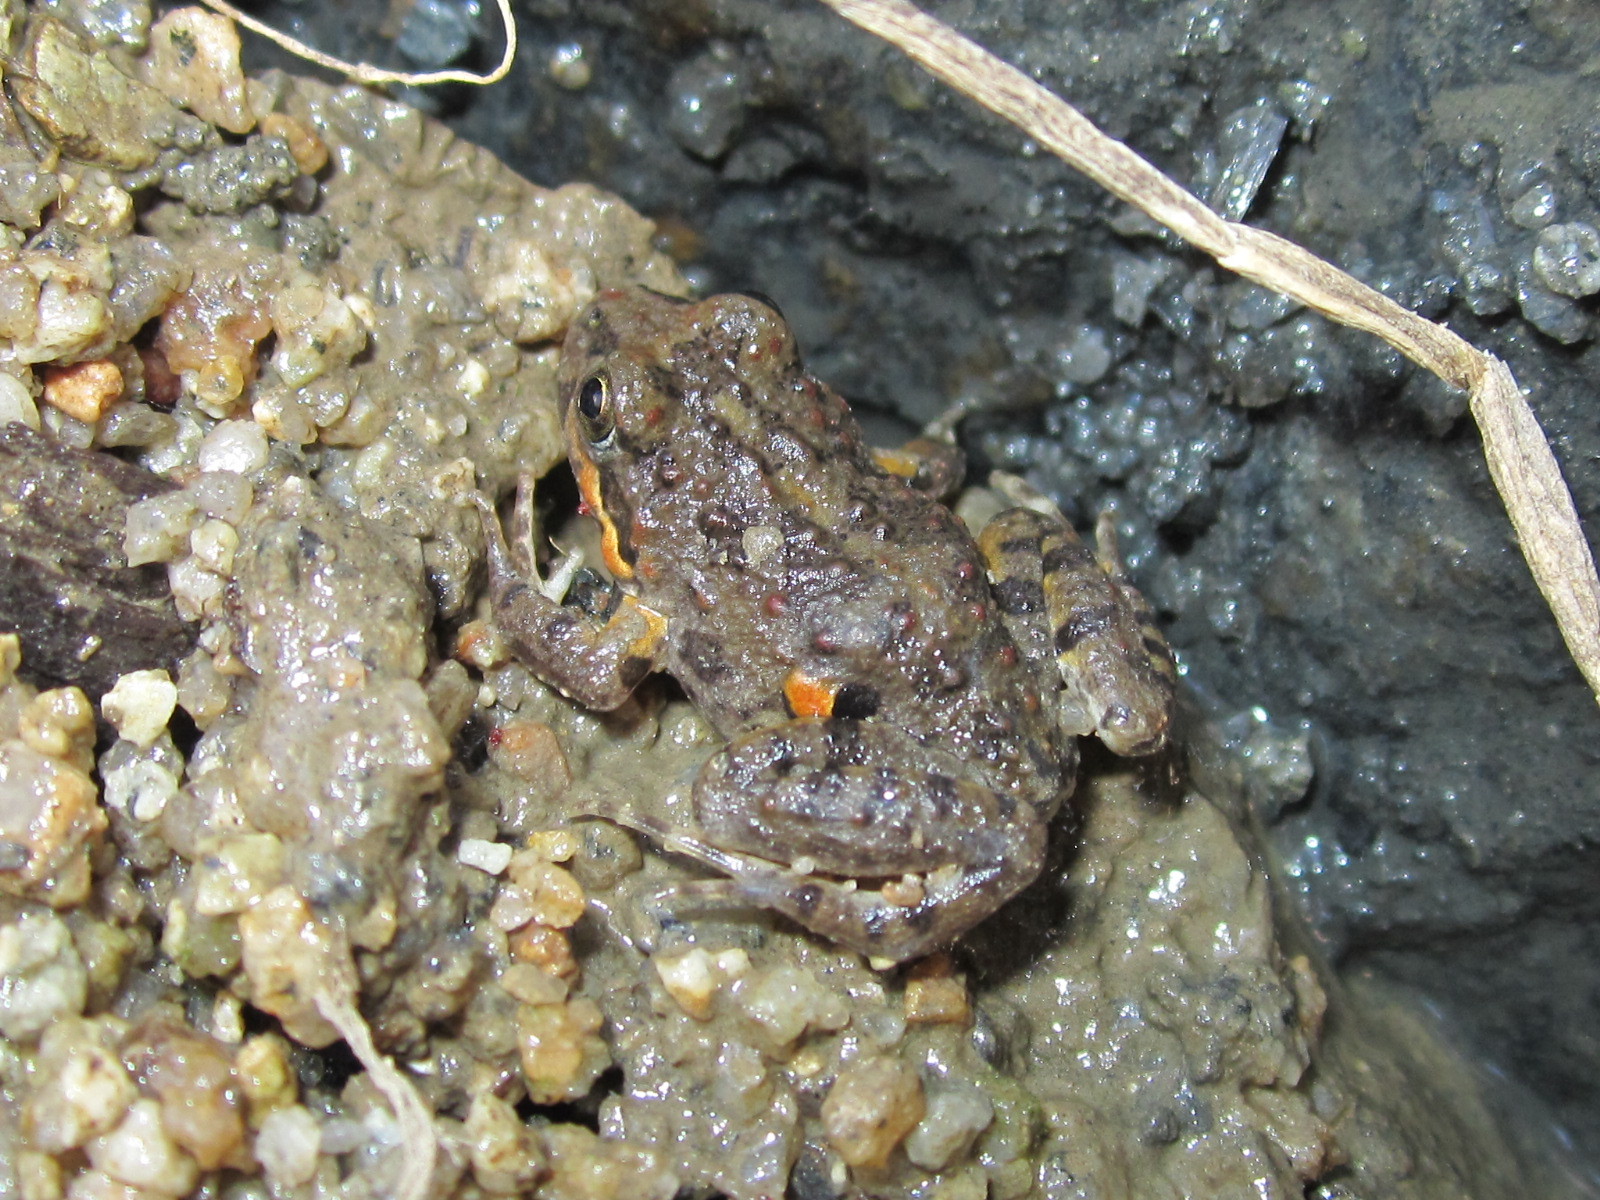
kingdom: Animalia
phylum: Chordata
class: Amphibia
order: Anura
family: Leptodactylidae
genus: Pleurodema
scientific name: Pleurodema thaul
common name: Chile four-eyed frog
